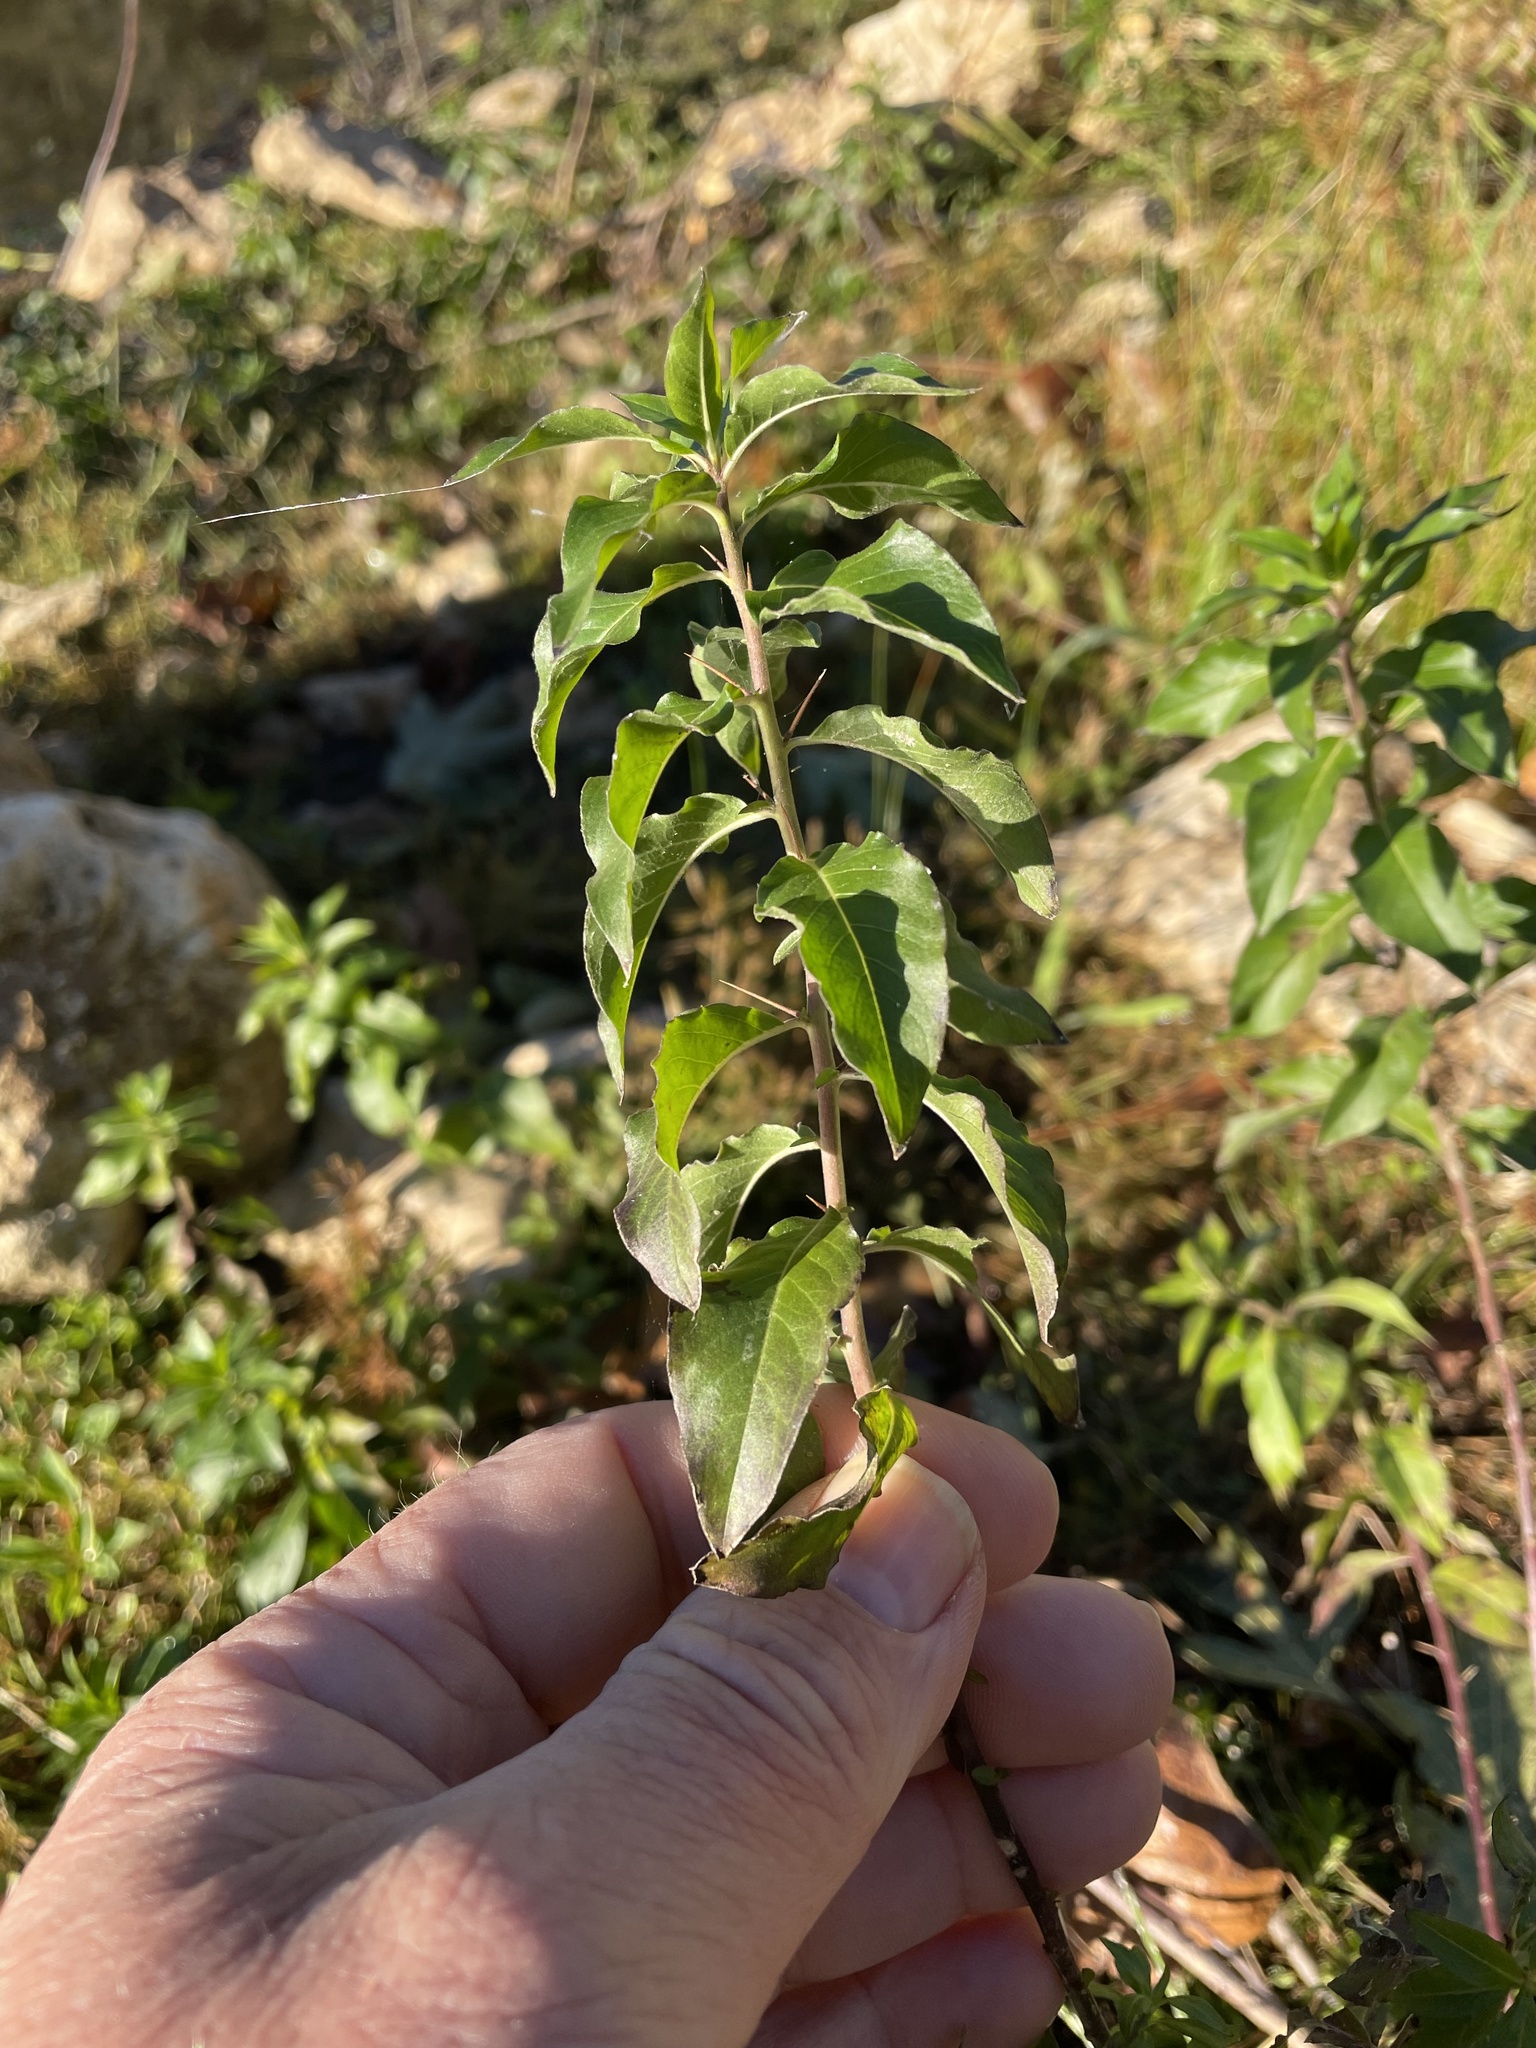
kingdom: Plantae
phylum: Tracheophyta
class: Magnoliopsida
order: Solanales
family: Hydroleaceae
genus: Hydrolea
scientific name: Hydrolea ovata
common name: Ovate false fiddleleaf
